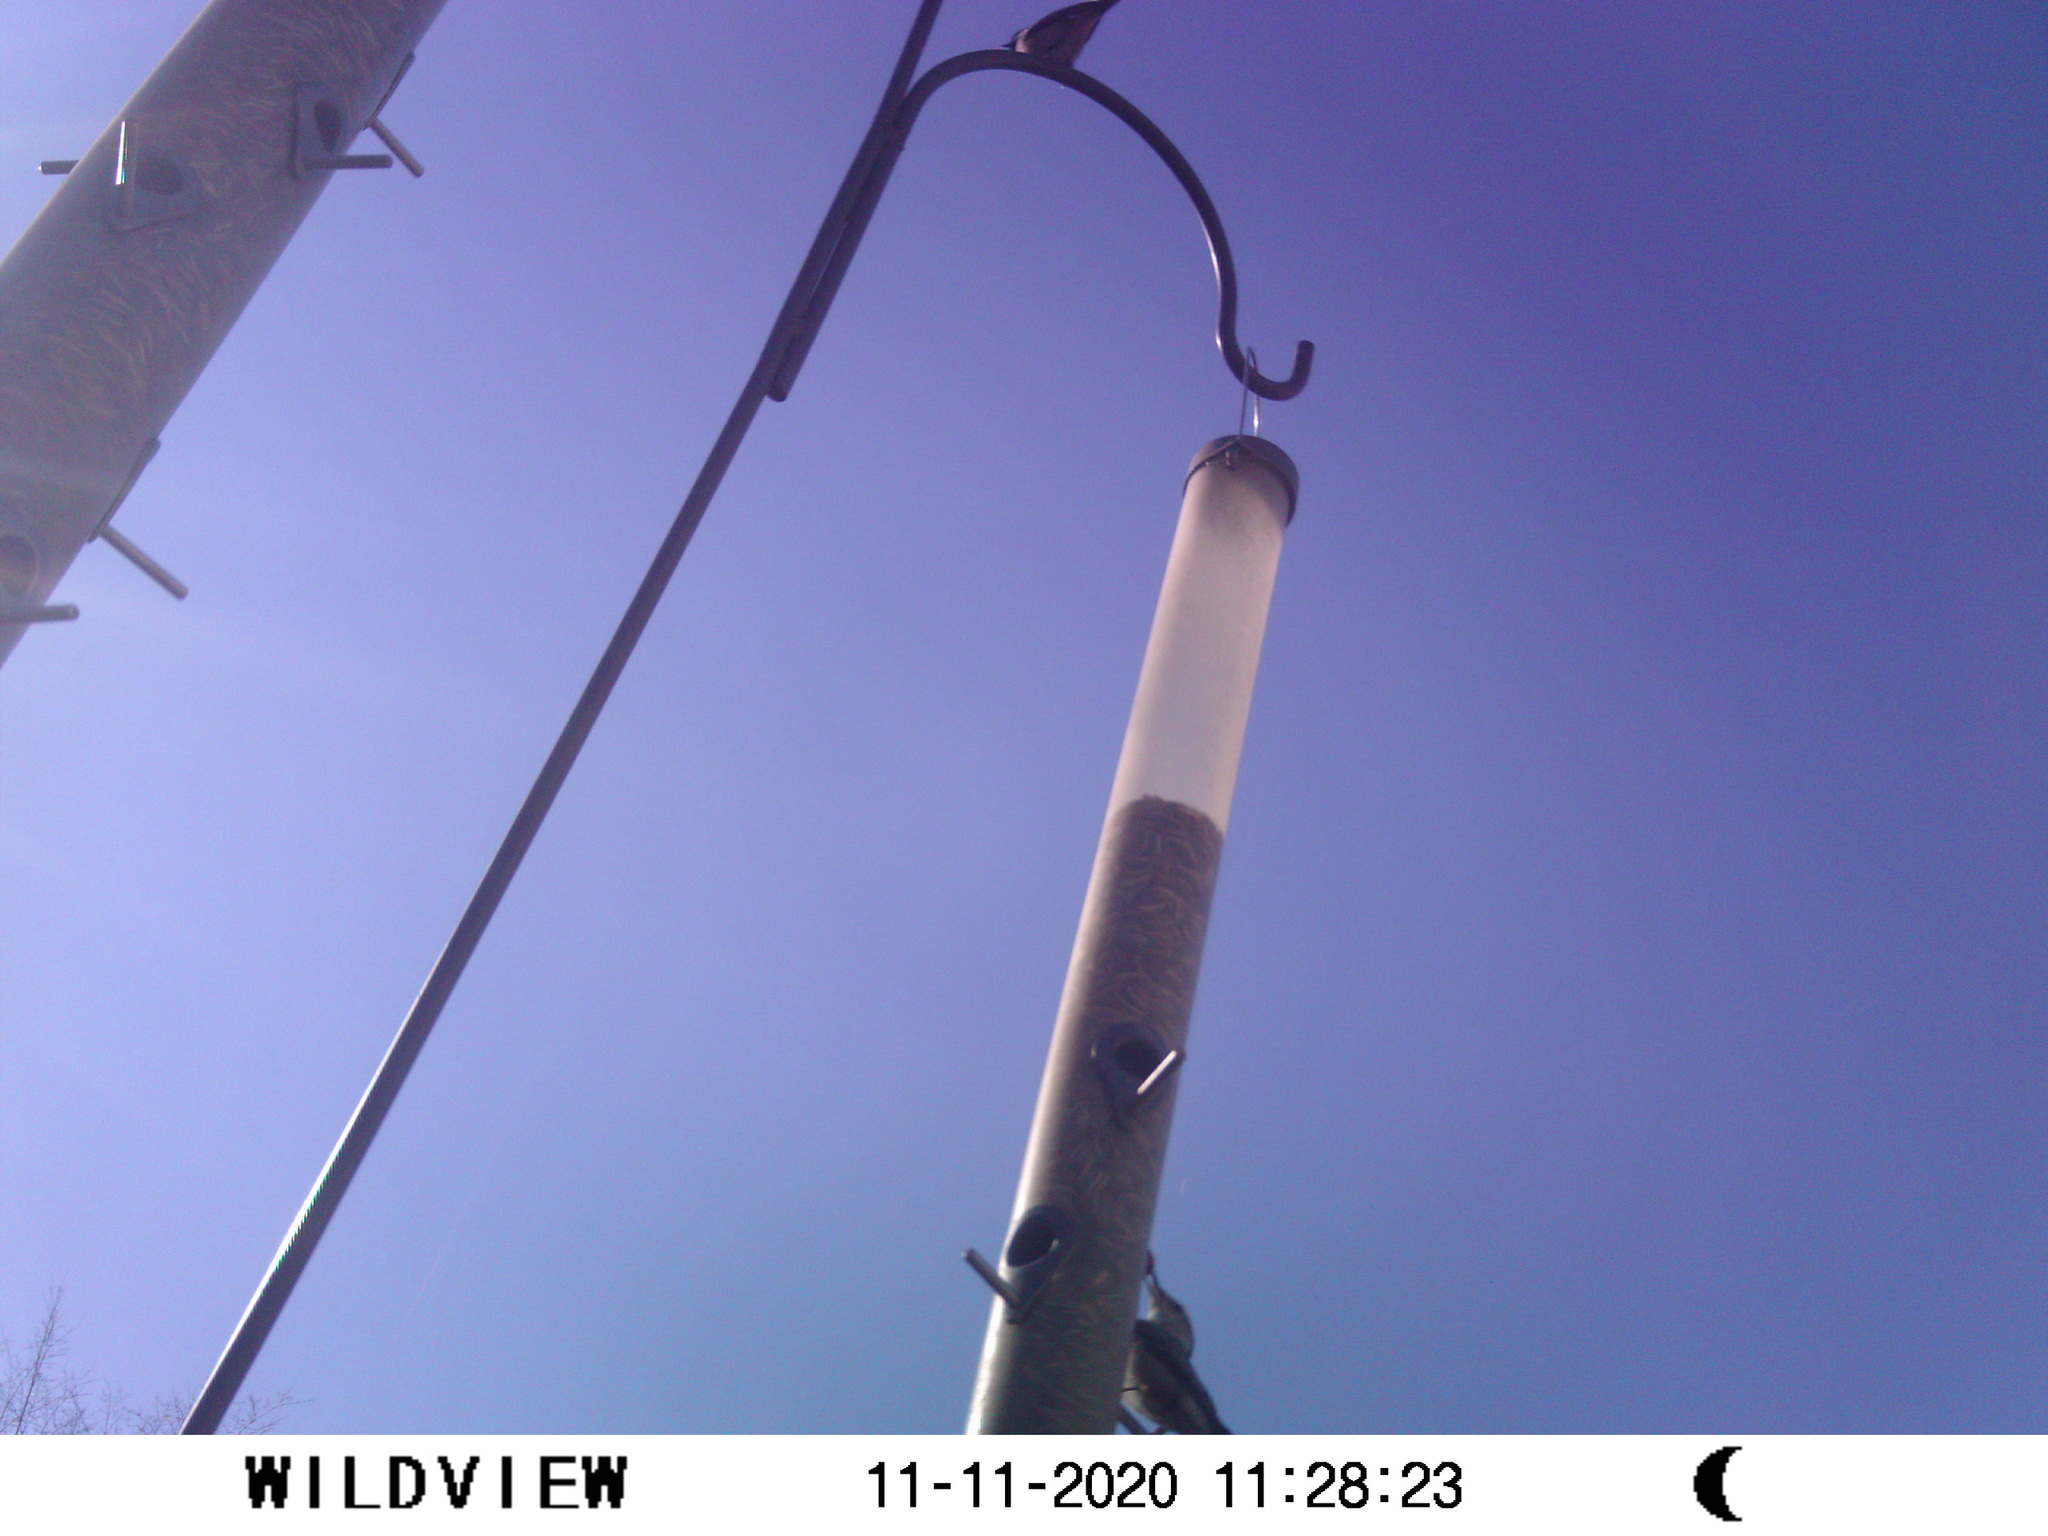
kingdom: Animalia
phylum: Chordata
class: Aves
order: Passeriformes
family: Sittidae
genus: Sitta
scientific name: Sitta carolinensis
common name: White-breasted nuthatch
